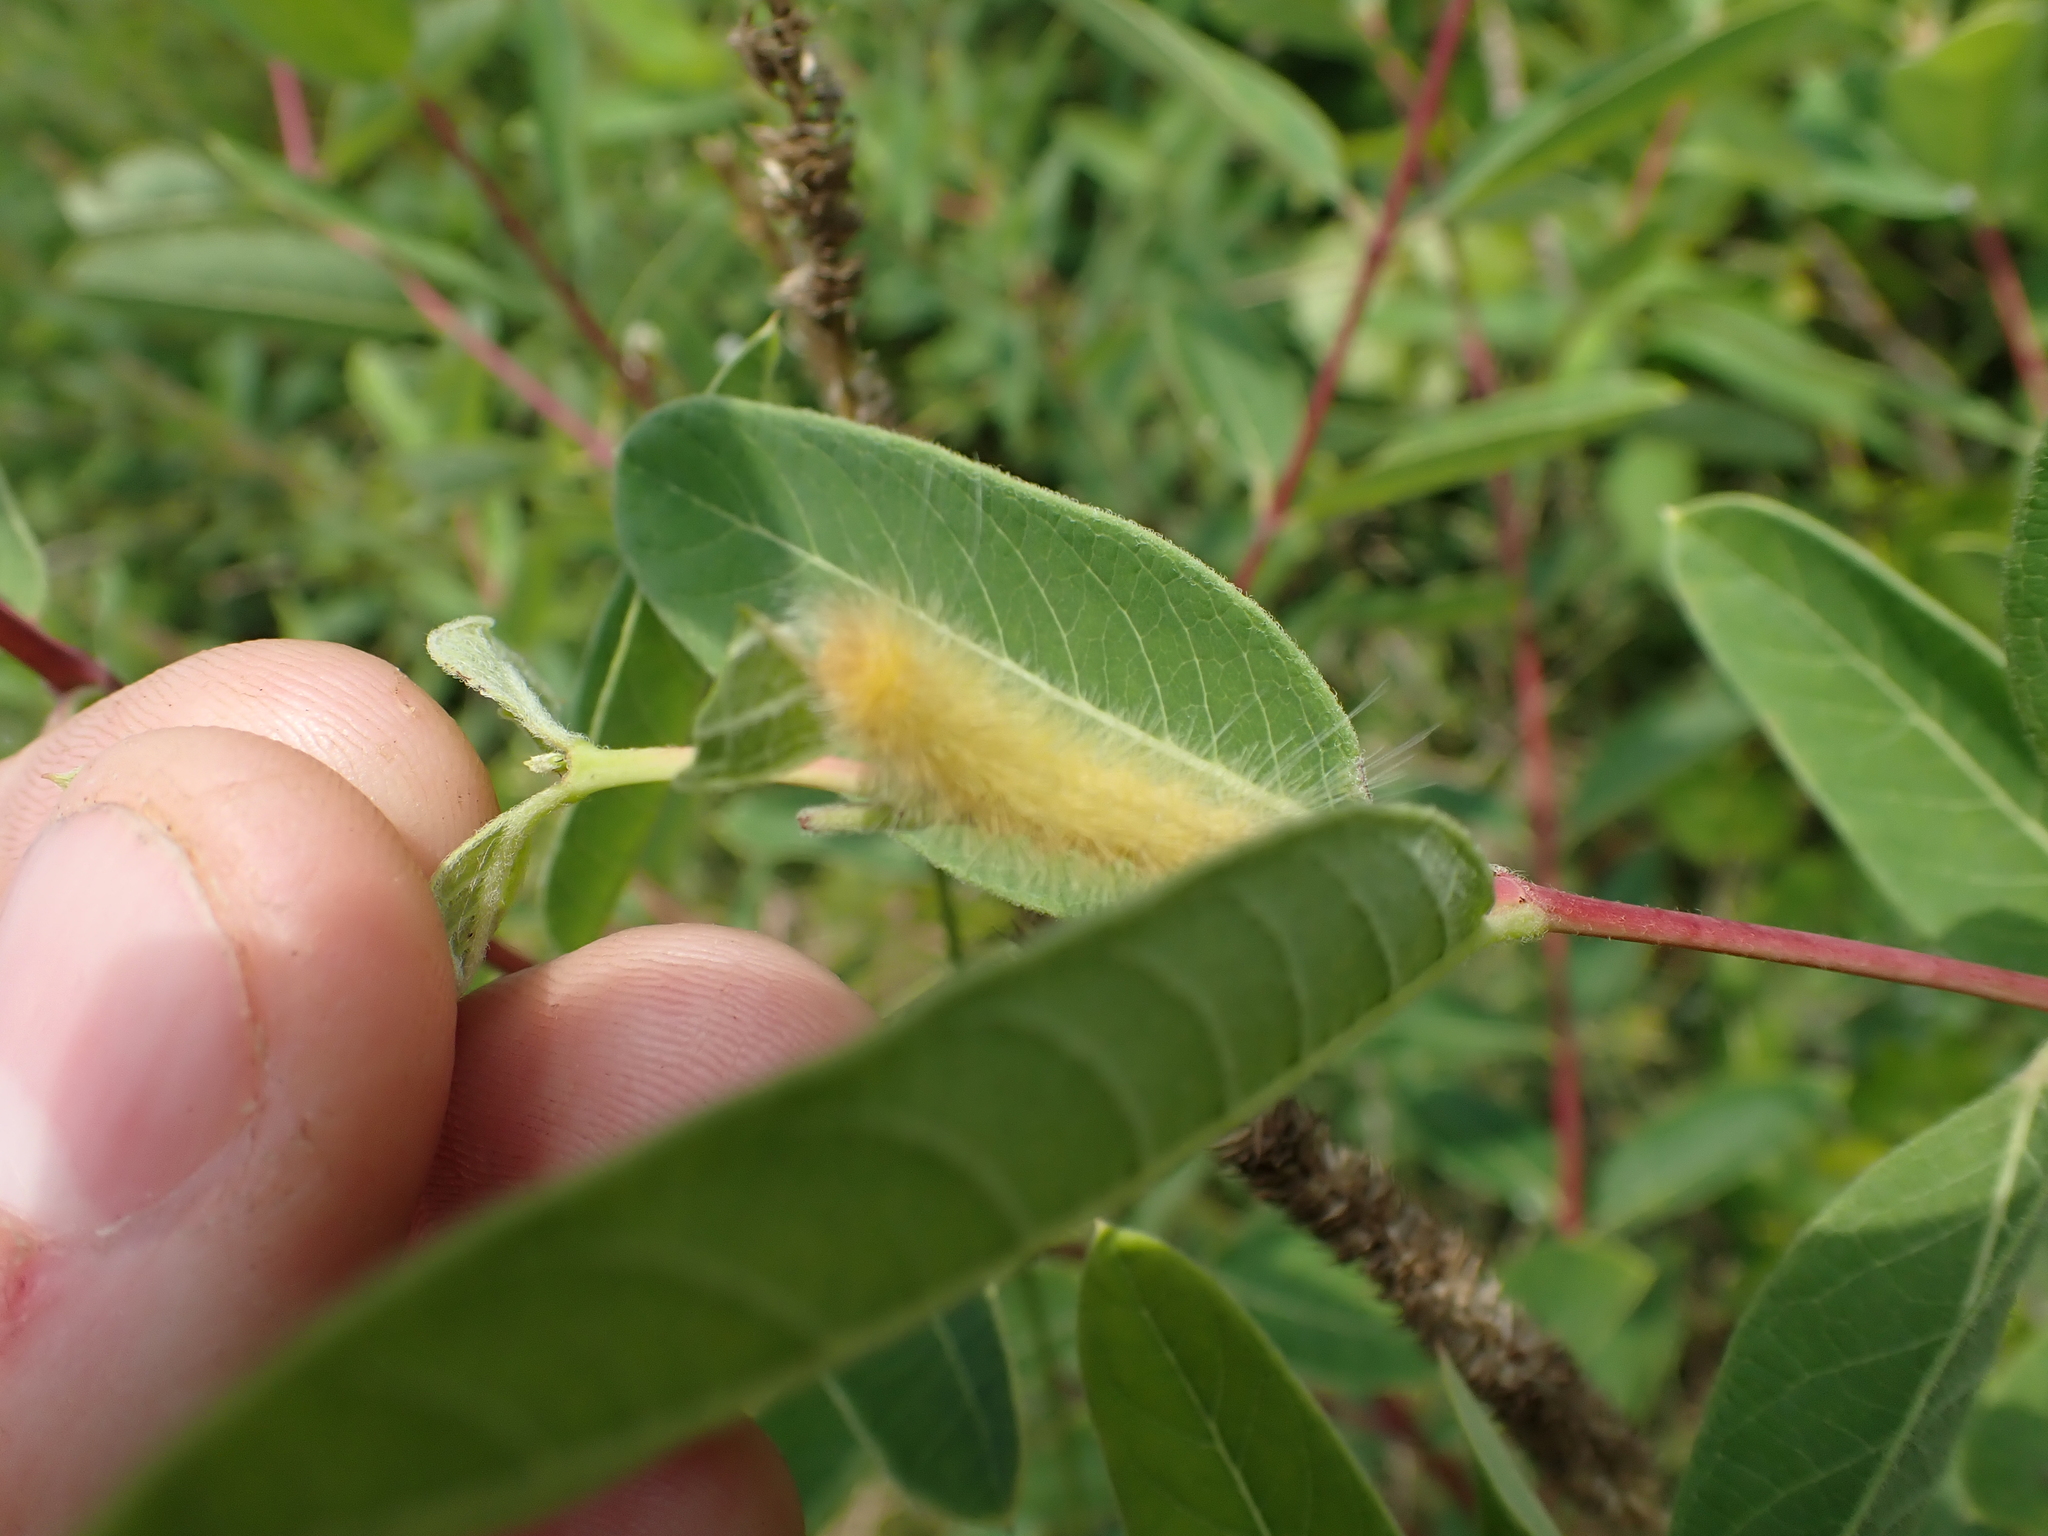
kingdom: Animalia
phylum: Arthropoda
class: Insecta
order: Lepidoptera
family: Erebidae
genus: Cycnia
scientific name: Cycnia tenera
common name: Delicate cycnia moth
